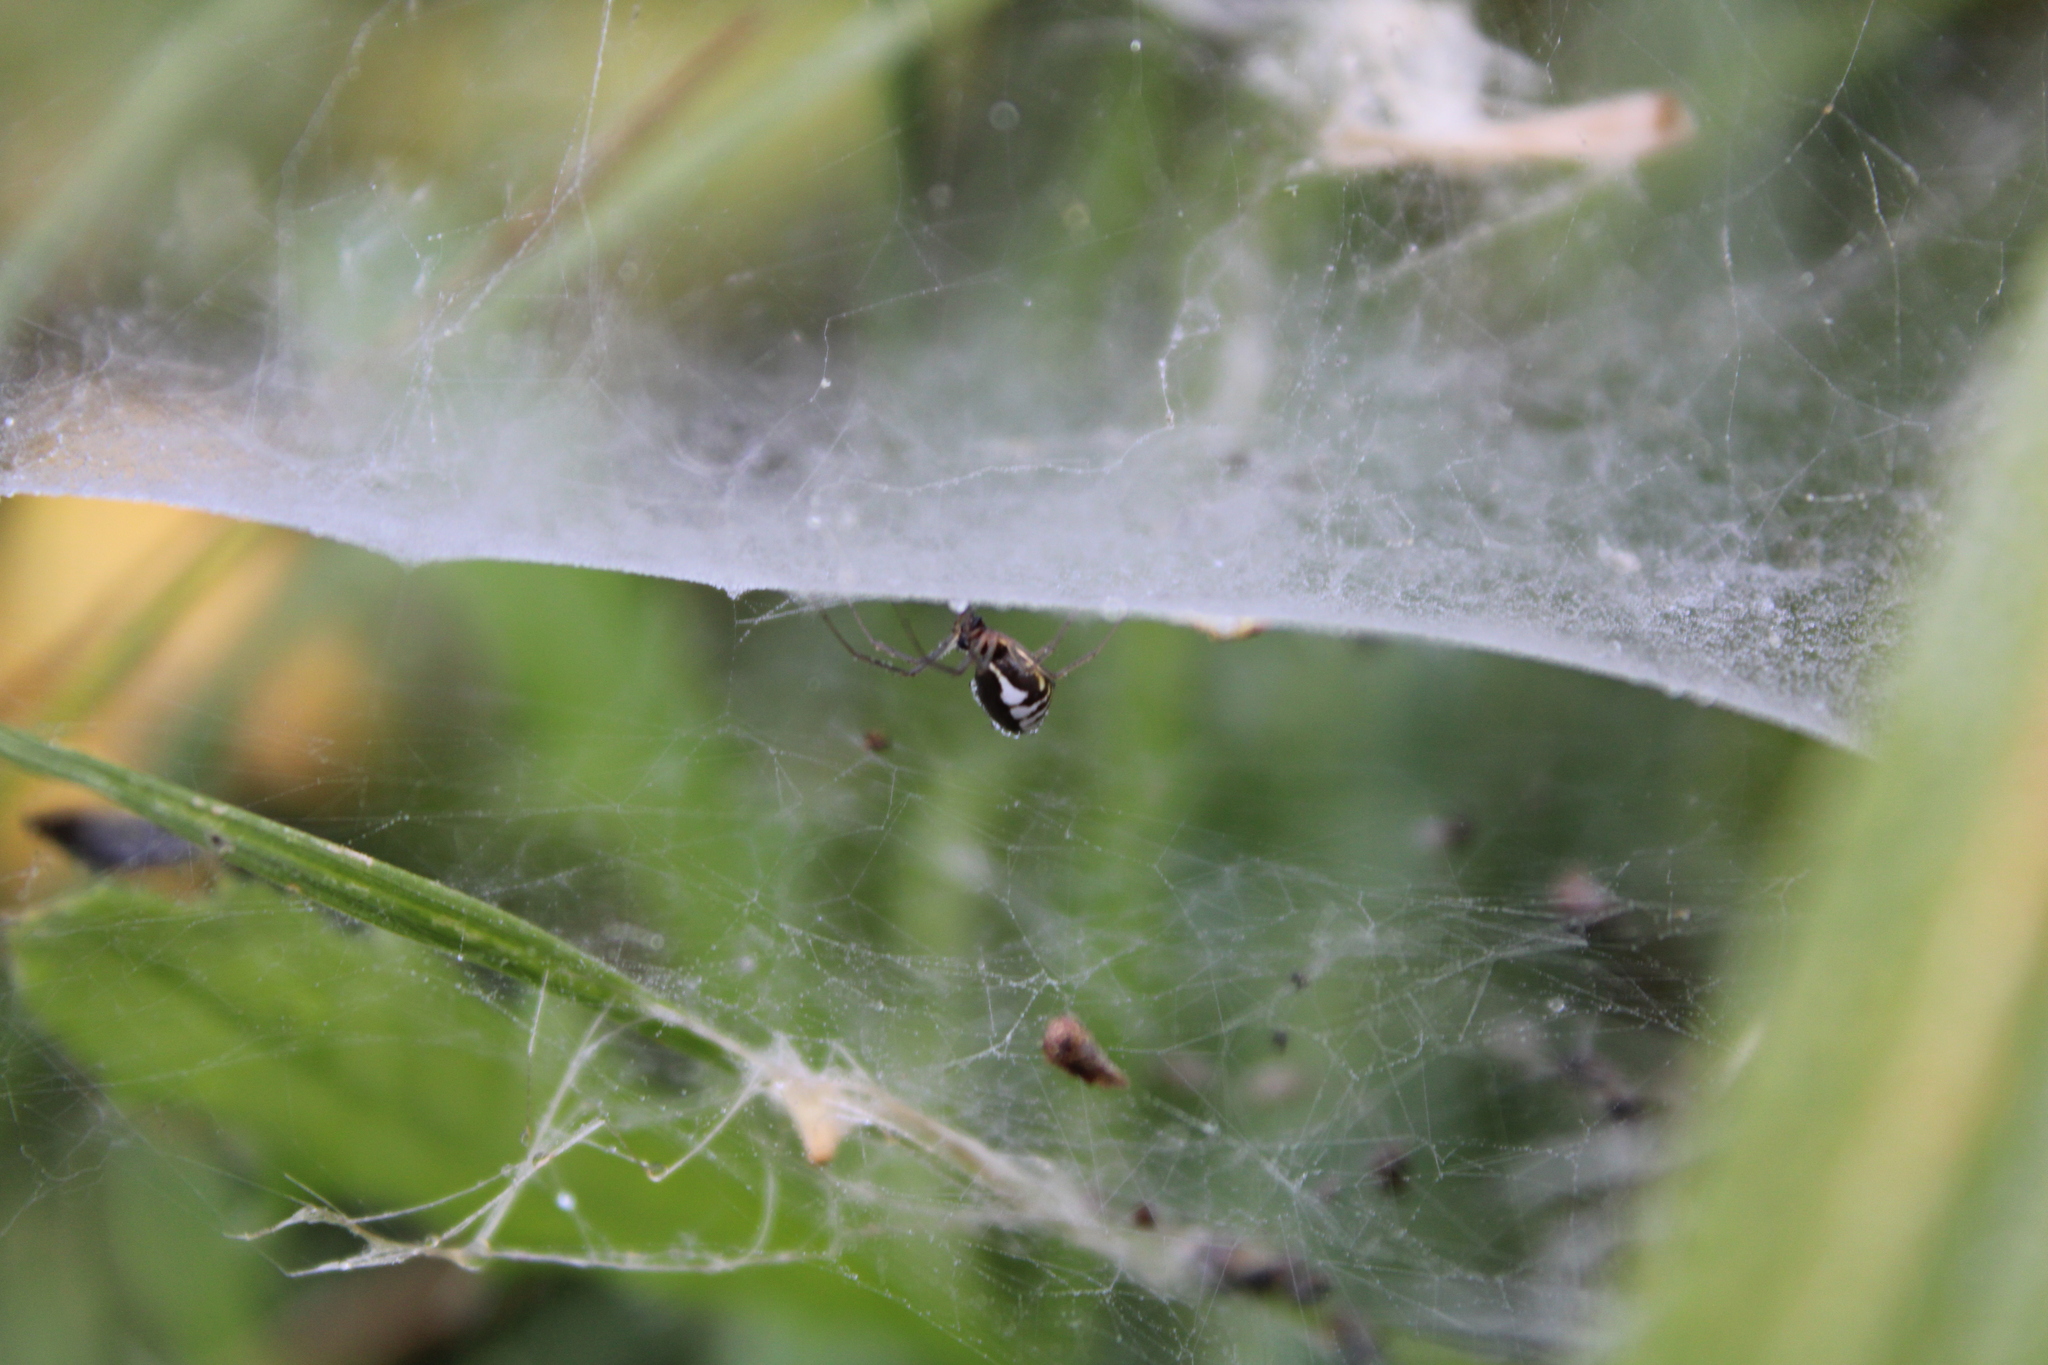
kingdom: Animalia
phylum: Arthropoda
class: Arachnida
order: Araneae
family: Linyphiidae
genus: Frontinella
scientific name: Frontinella pyramitela
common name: Bowl-and-doily spider
